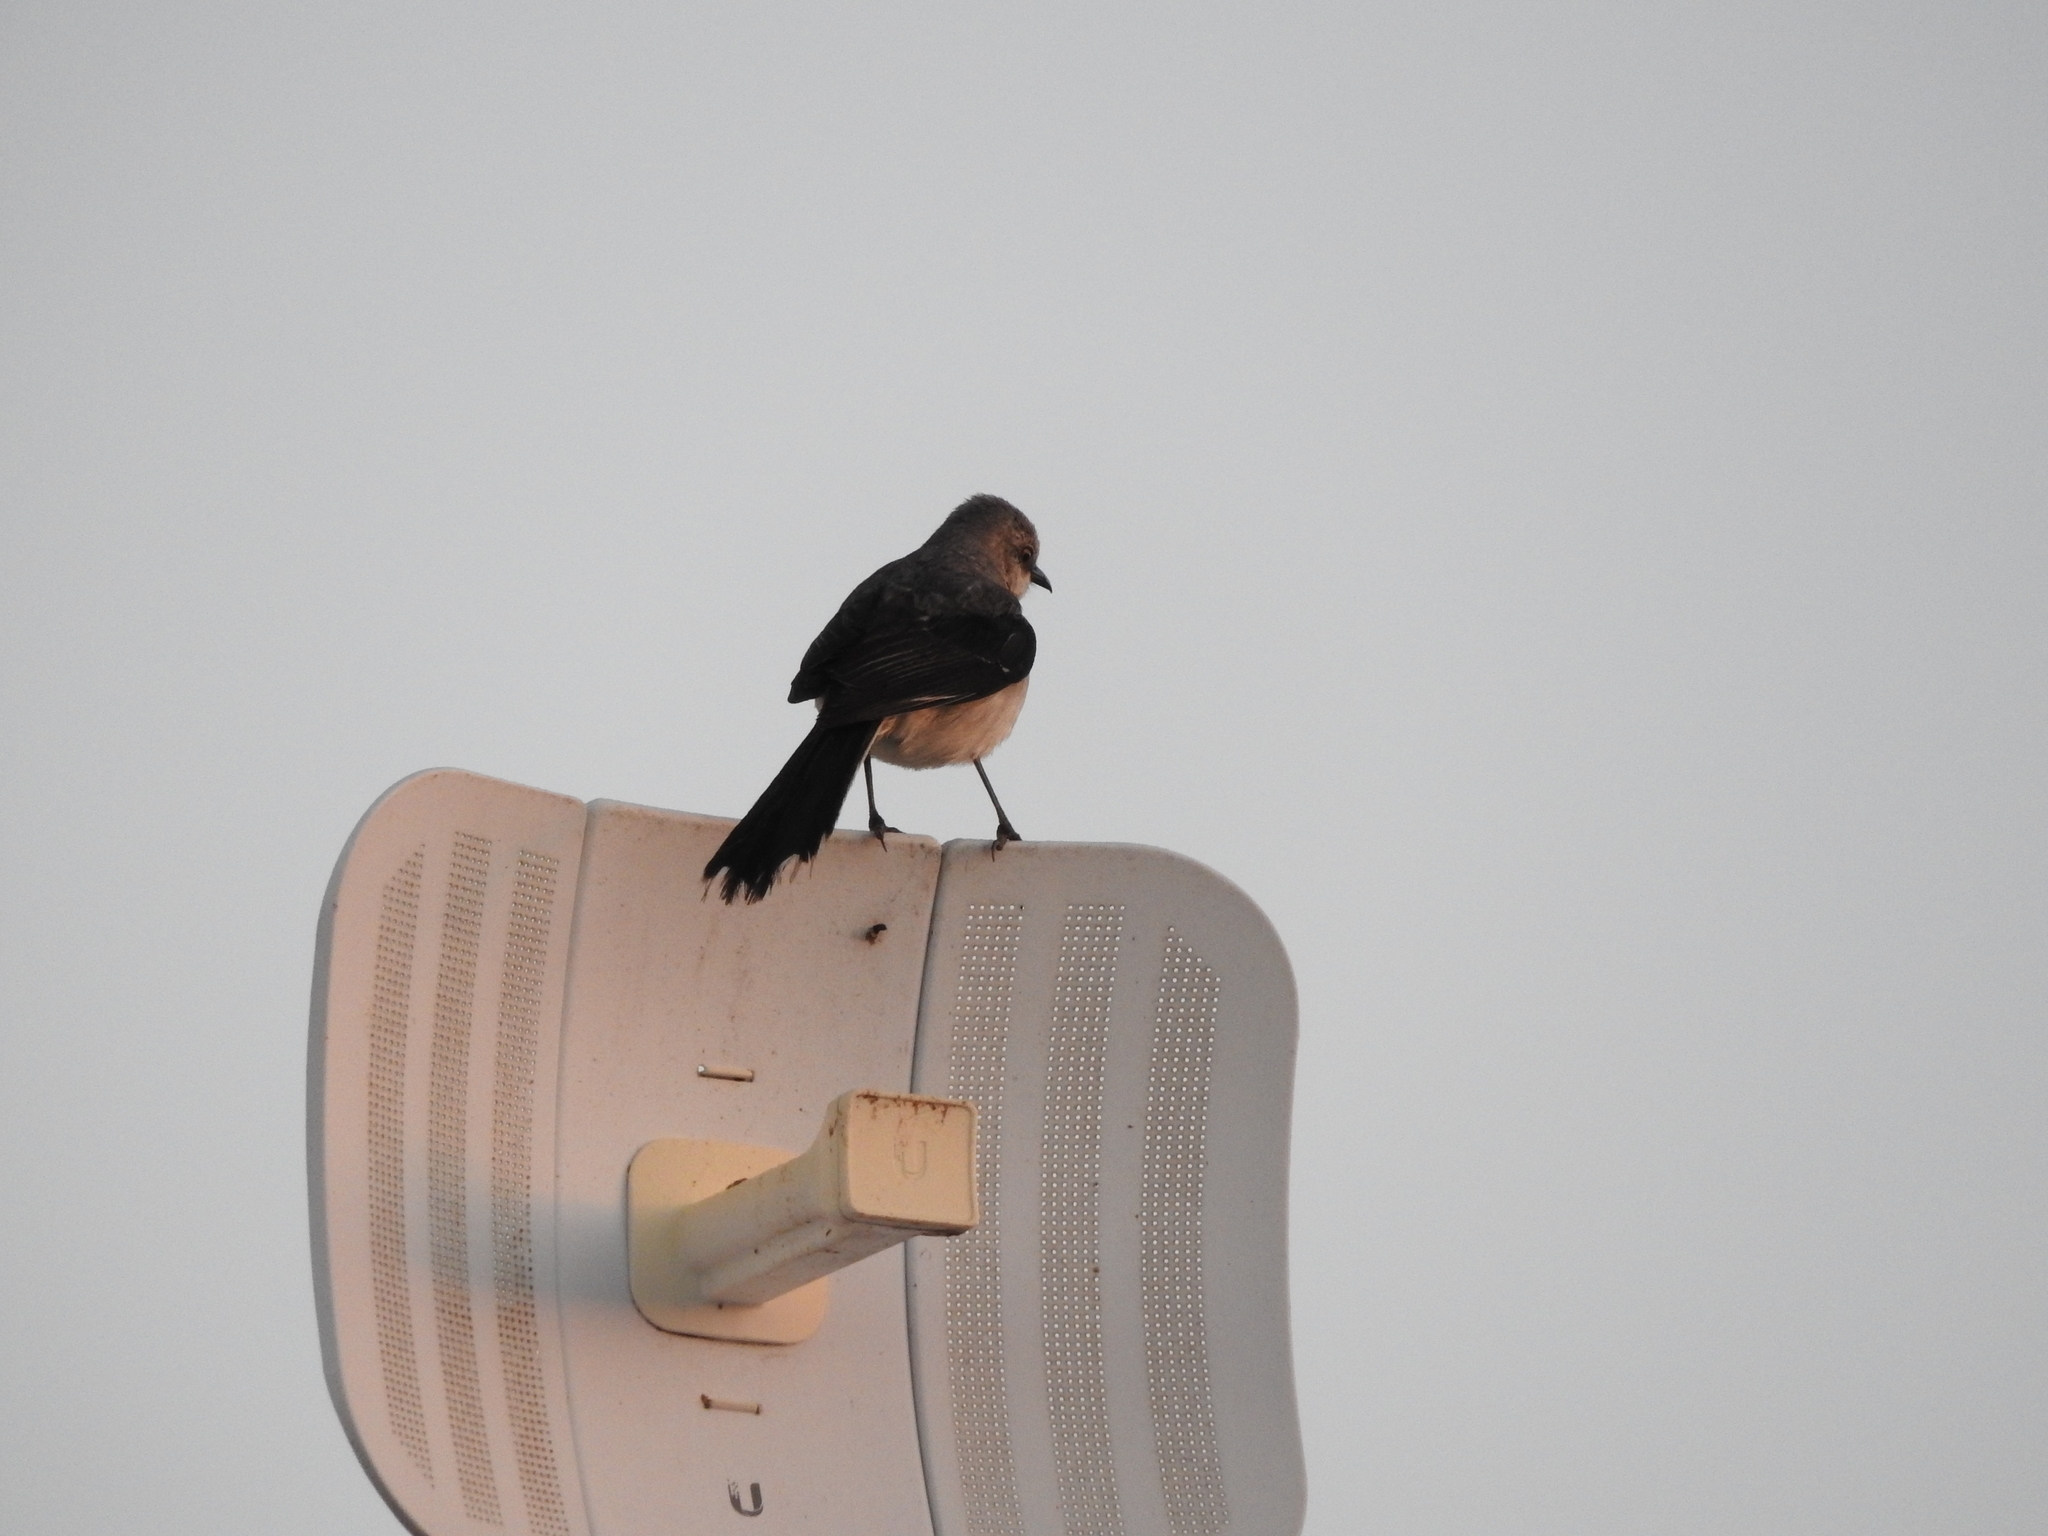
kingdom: Animalia
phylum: Chordata
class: Aves
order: Passeriformes
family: Mimidae
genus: Mimus
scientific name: Mimus gilvus
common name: Tropical mockingbird
